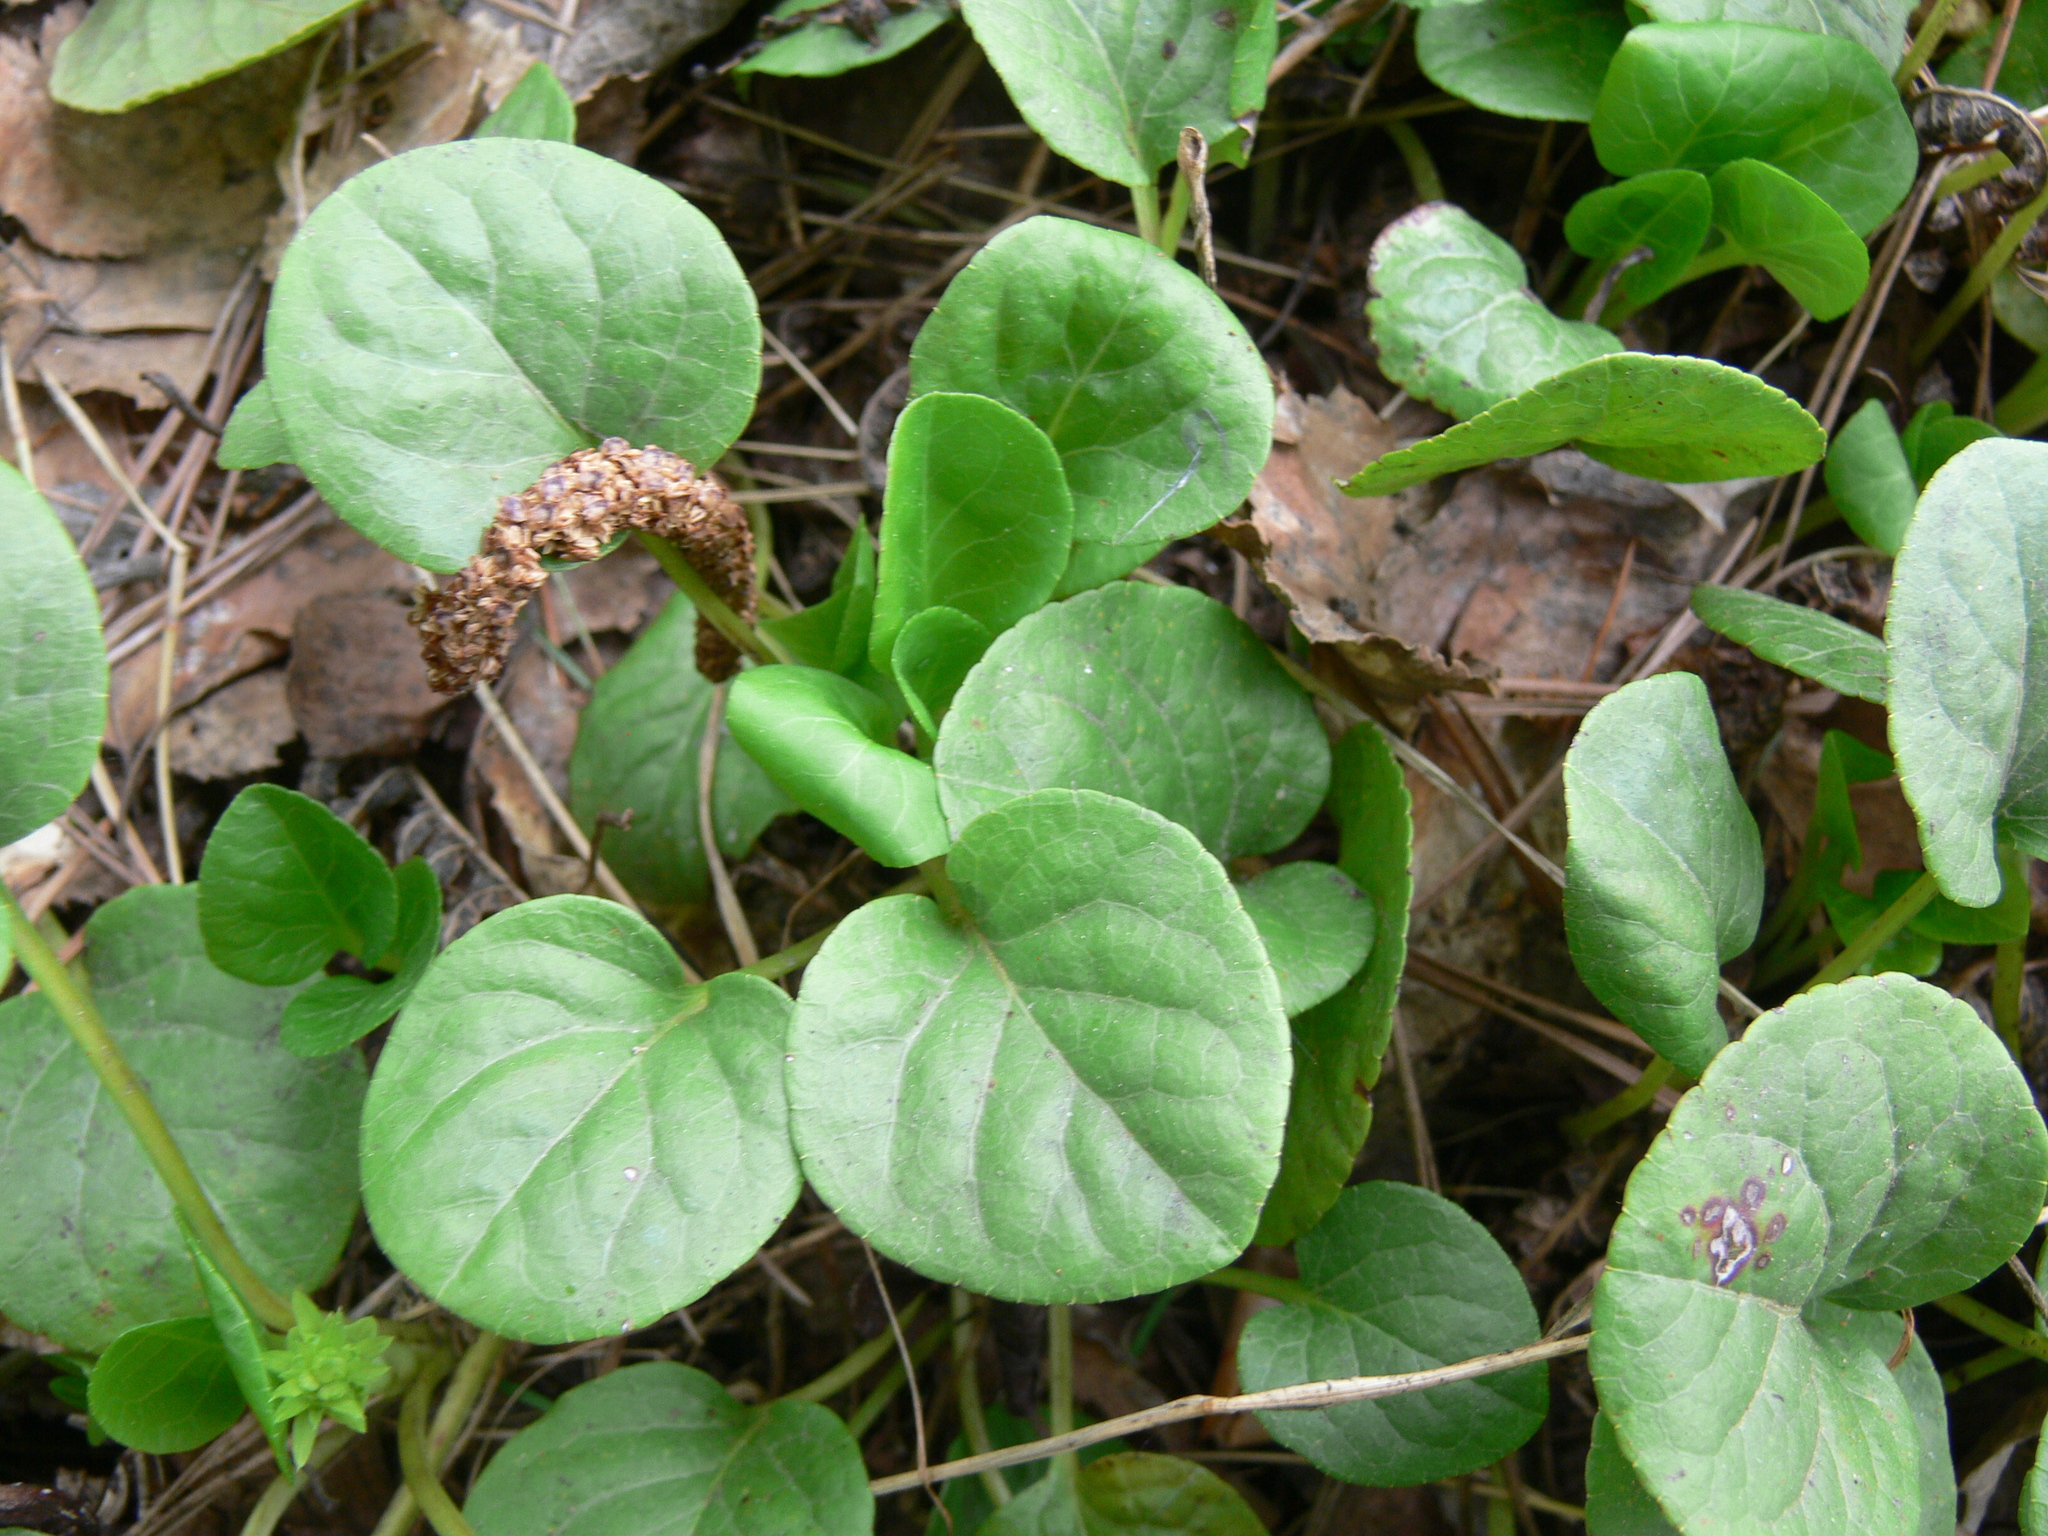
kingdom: Plantae
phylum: Tracheophyta
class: Magnoliopsida
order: Ericales
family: Ericaceae
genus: Pyrola
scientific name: Pyrola
